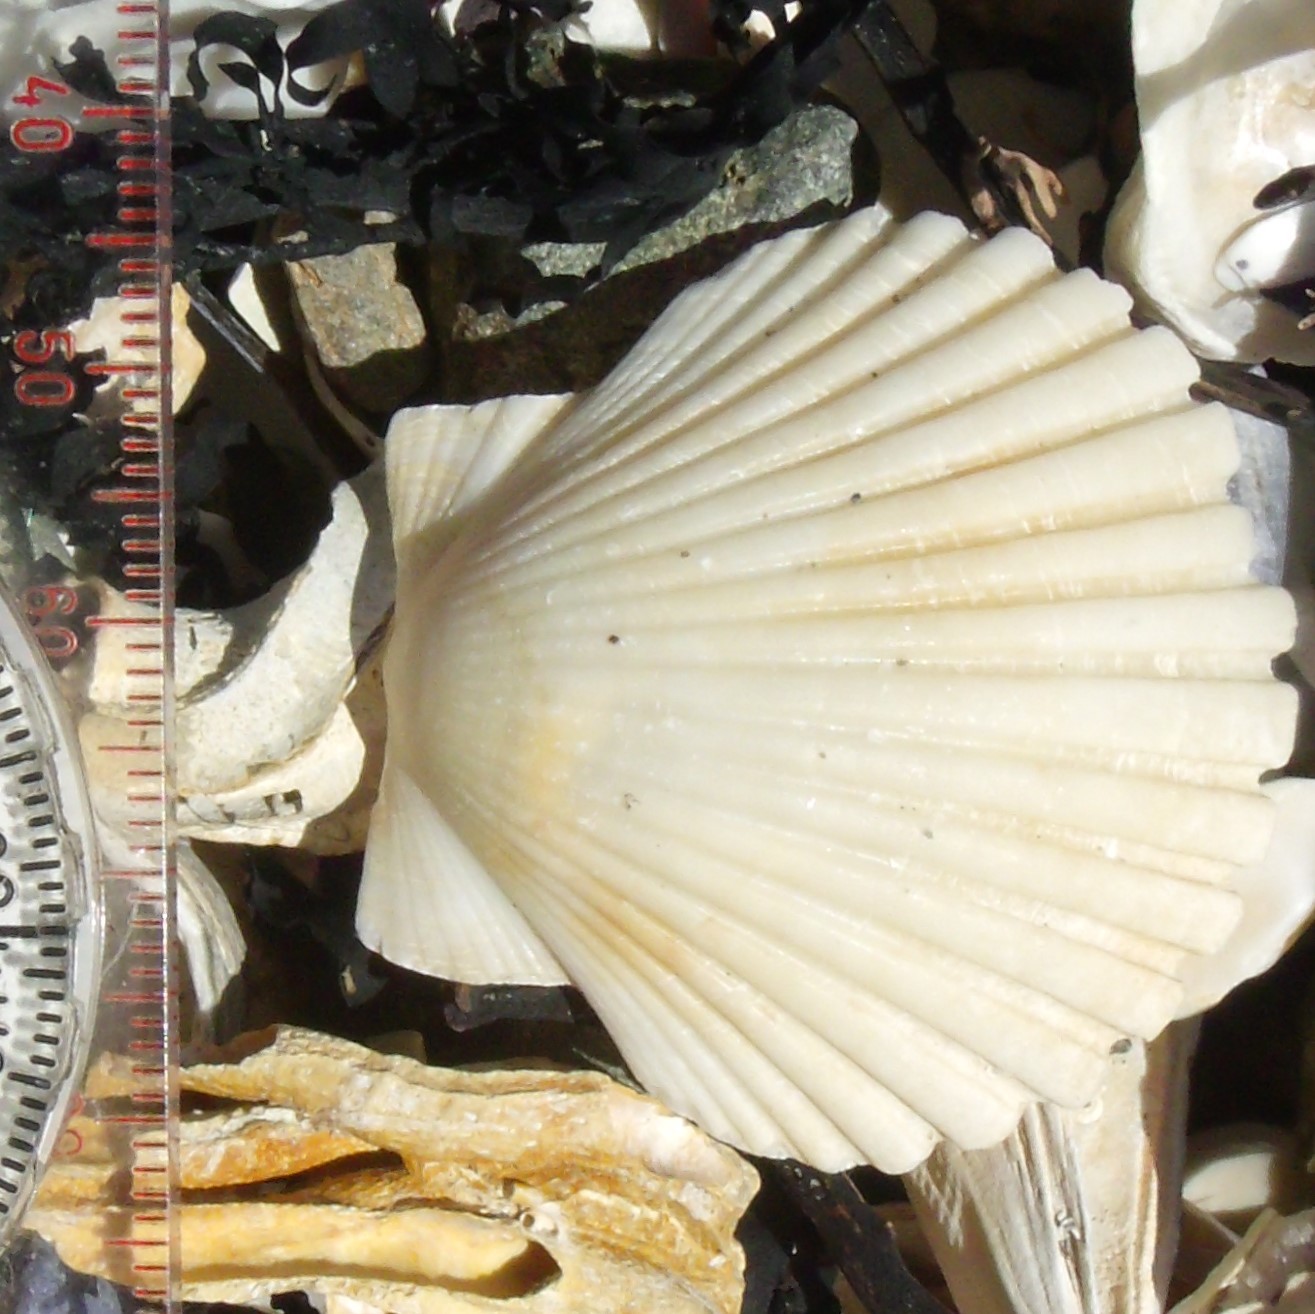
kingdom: Animalia
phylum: Mollusca
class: Bivalvia
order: Pectinida
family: Pectinidae
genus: Pecten
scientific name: Pecten novaezelandiae
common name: New zealand scallop
